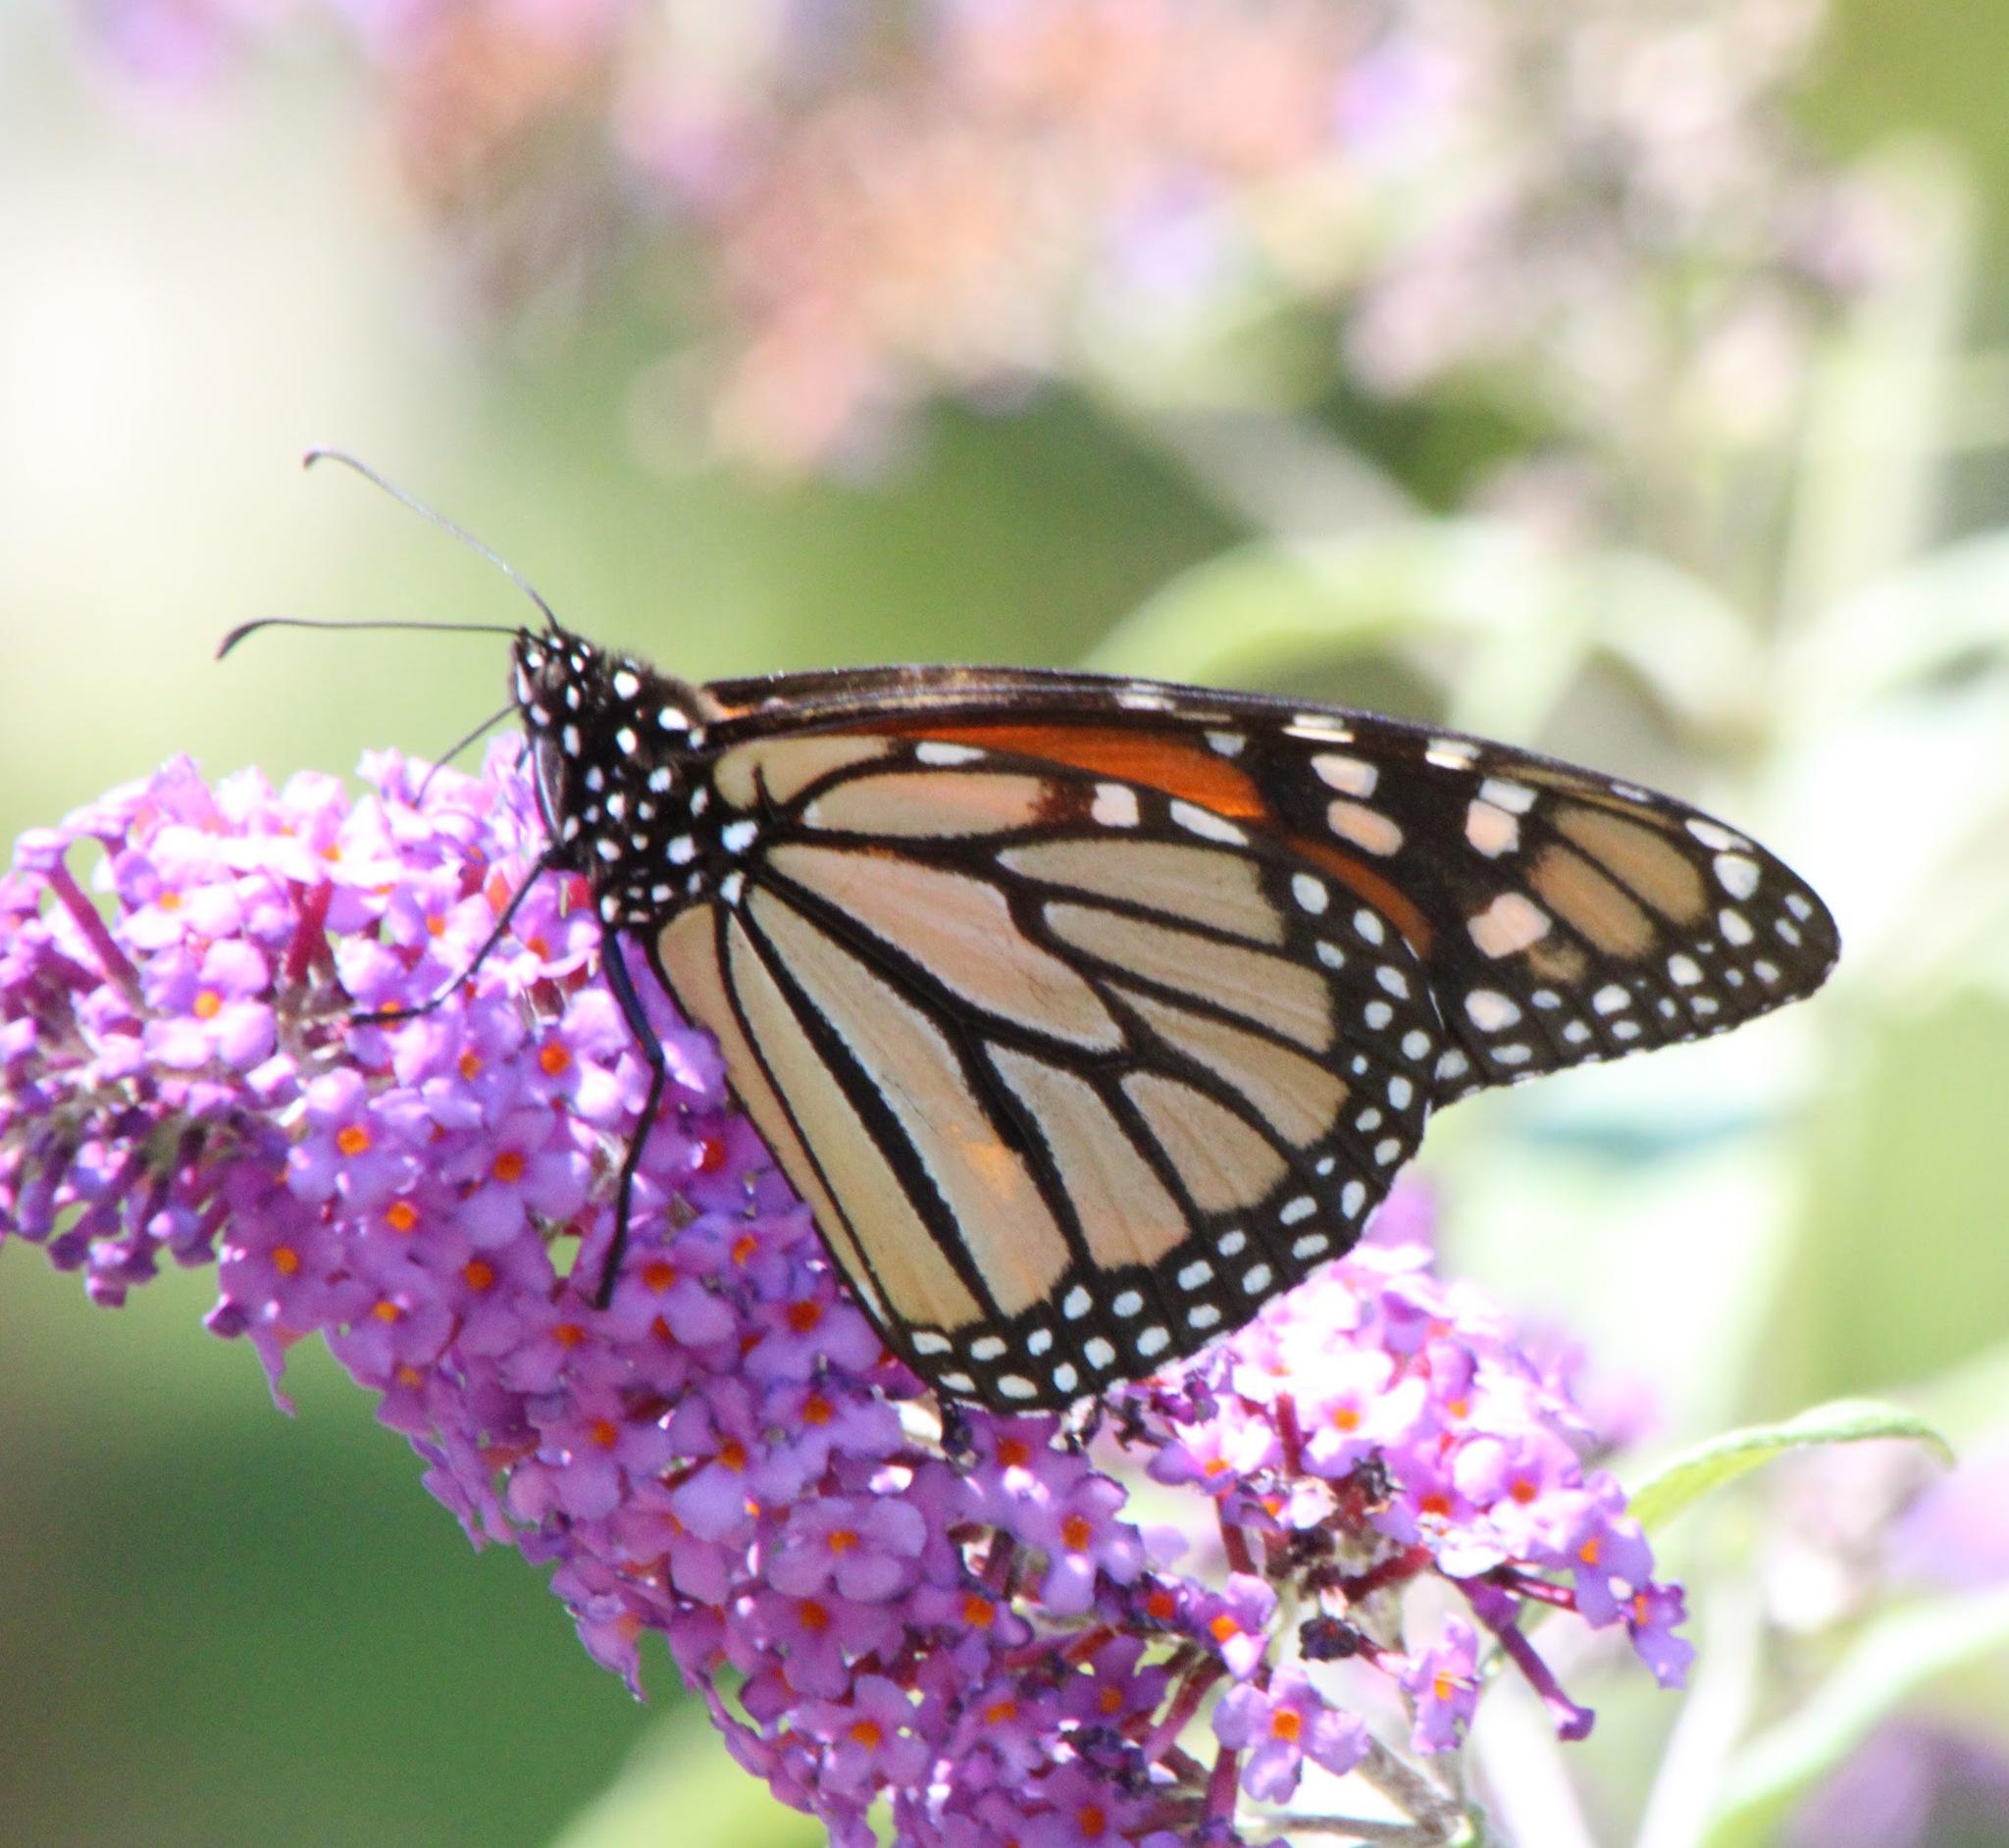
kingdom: Animalia
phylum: Arthropoda
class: Insecta
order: Lepidoptera
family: Nymphalidae
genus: Danaus
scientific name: Danaus plexippus
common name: Monarch
